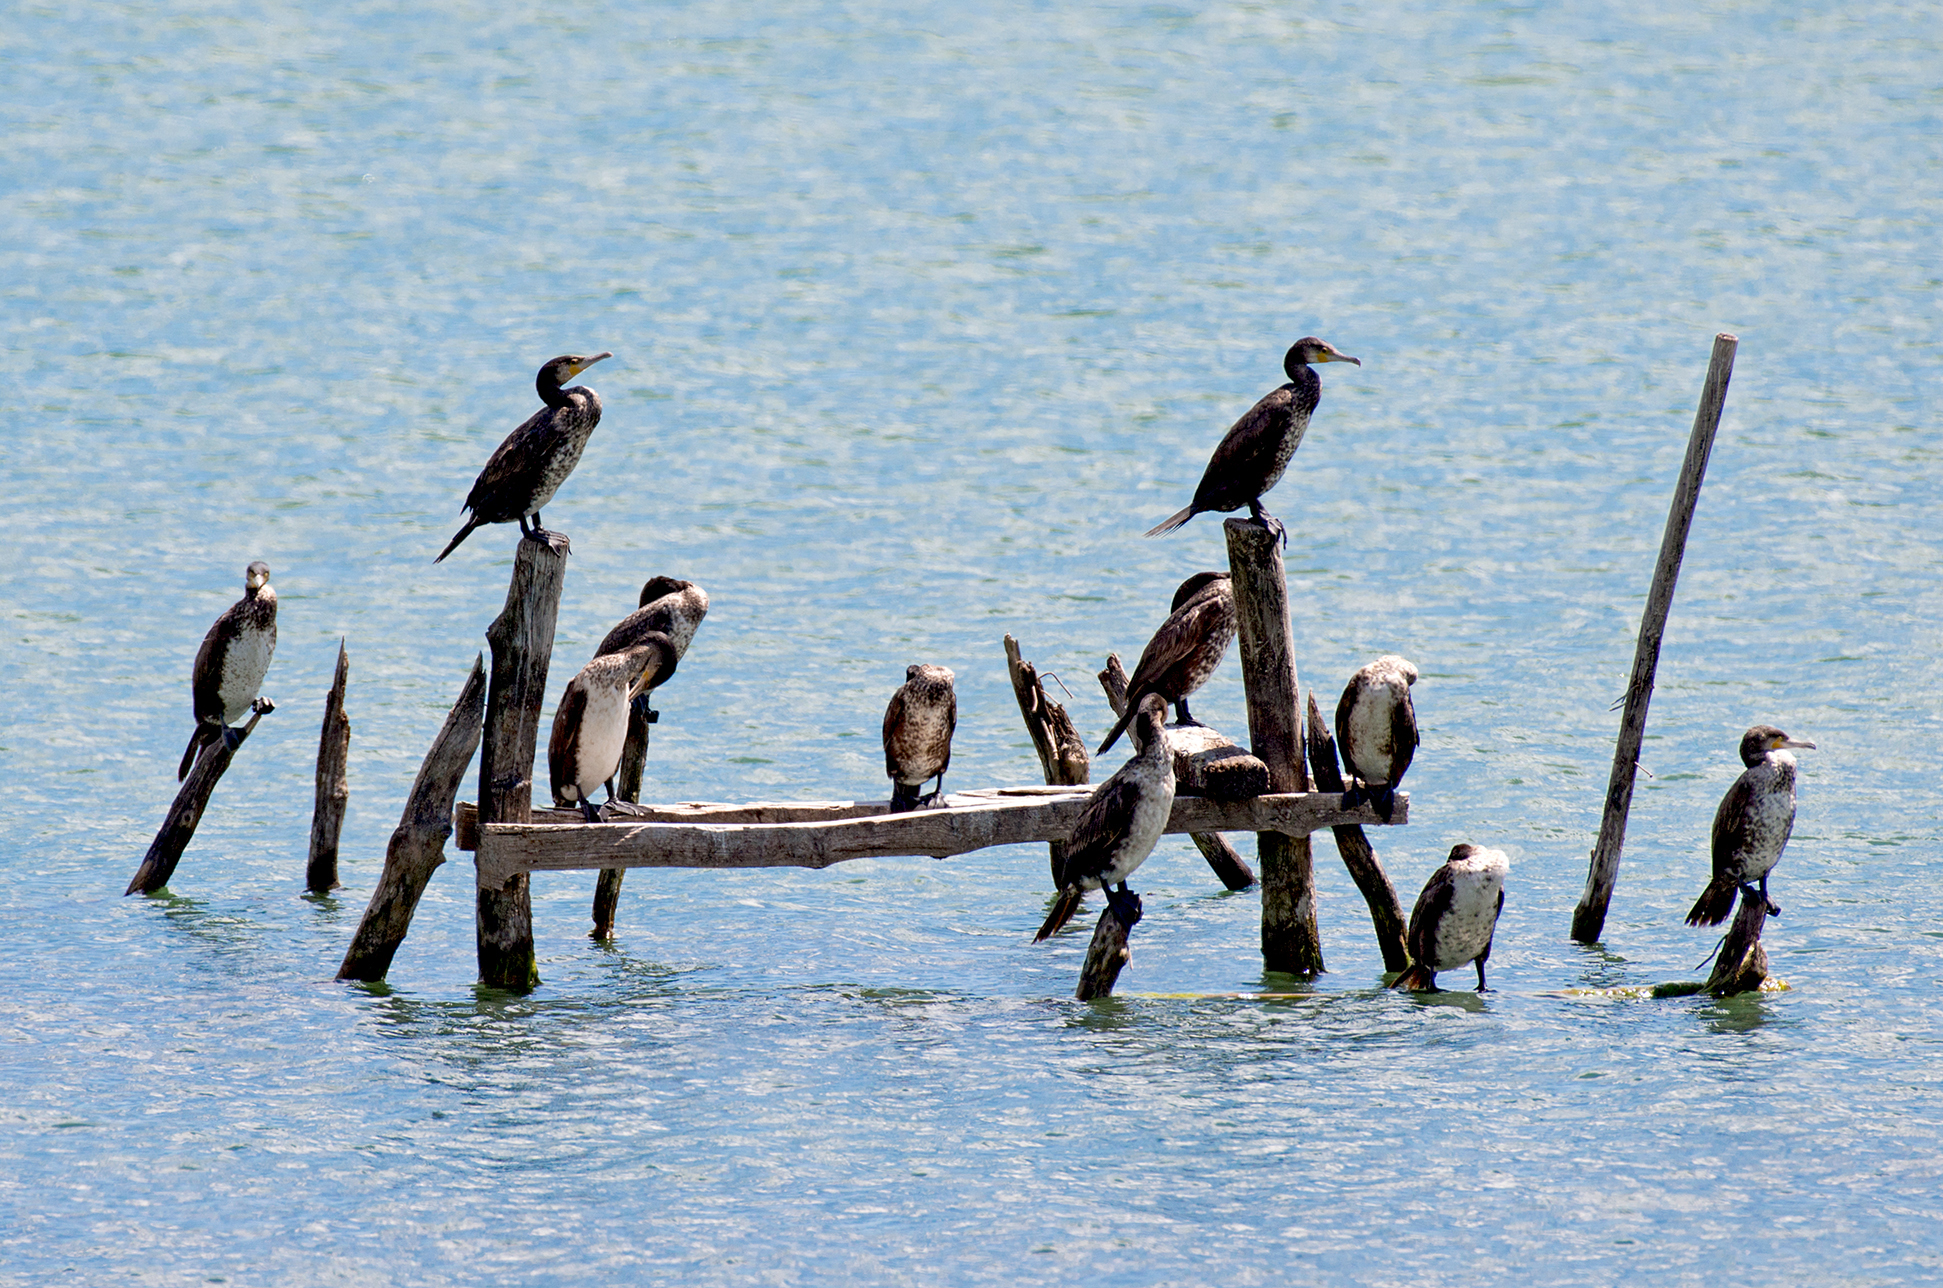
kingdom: Animalia
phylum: Chordata
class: Aves
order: Suliformes
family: Phalacrocoracidae
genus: Phalacrocorax
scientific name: Phalacrocorax carbo
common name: Great cormorant
